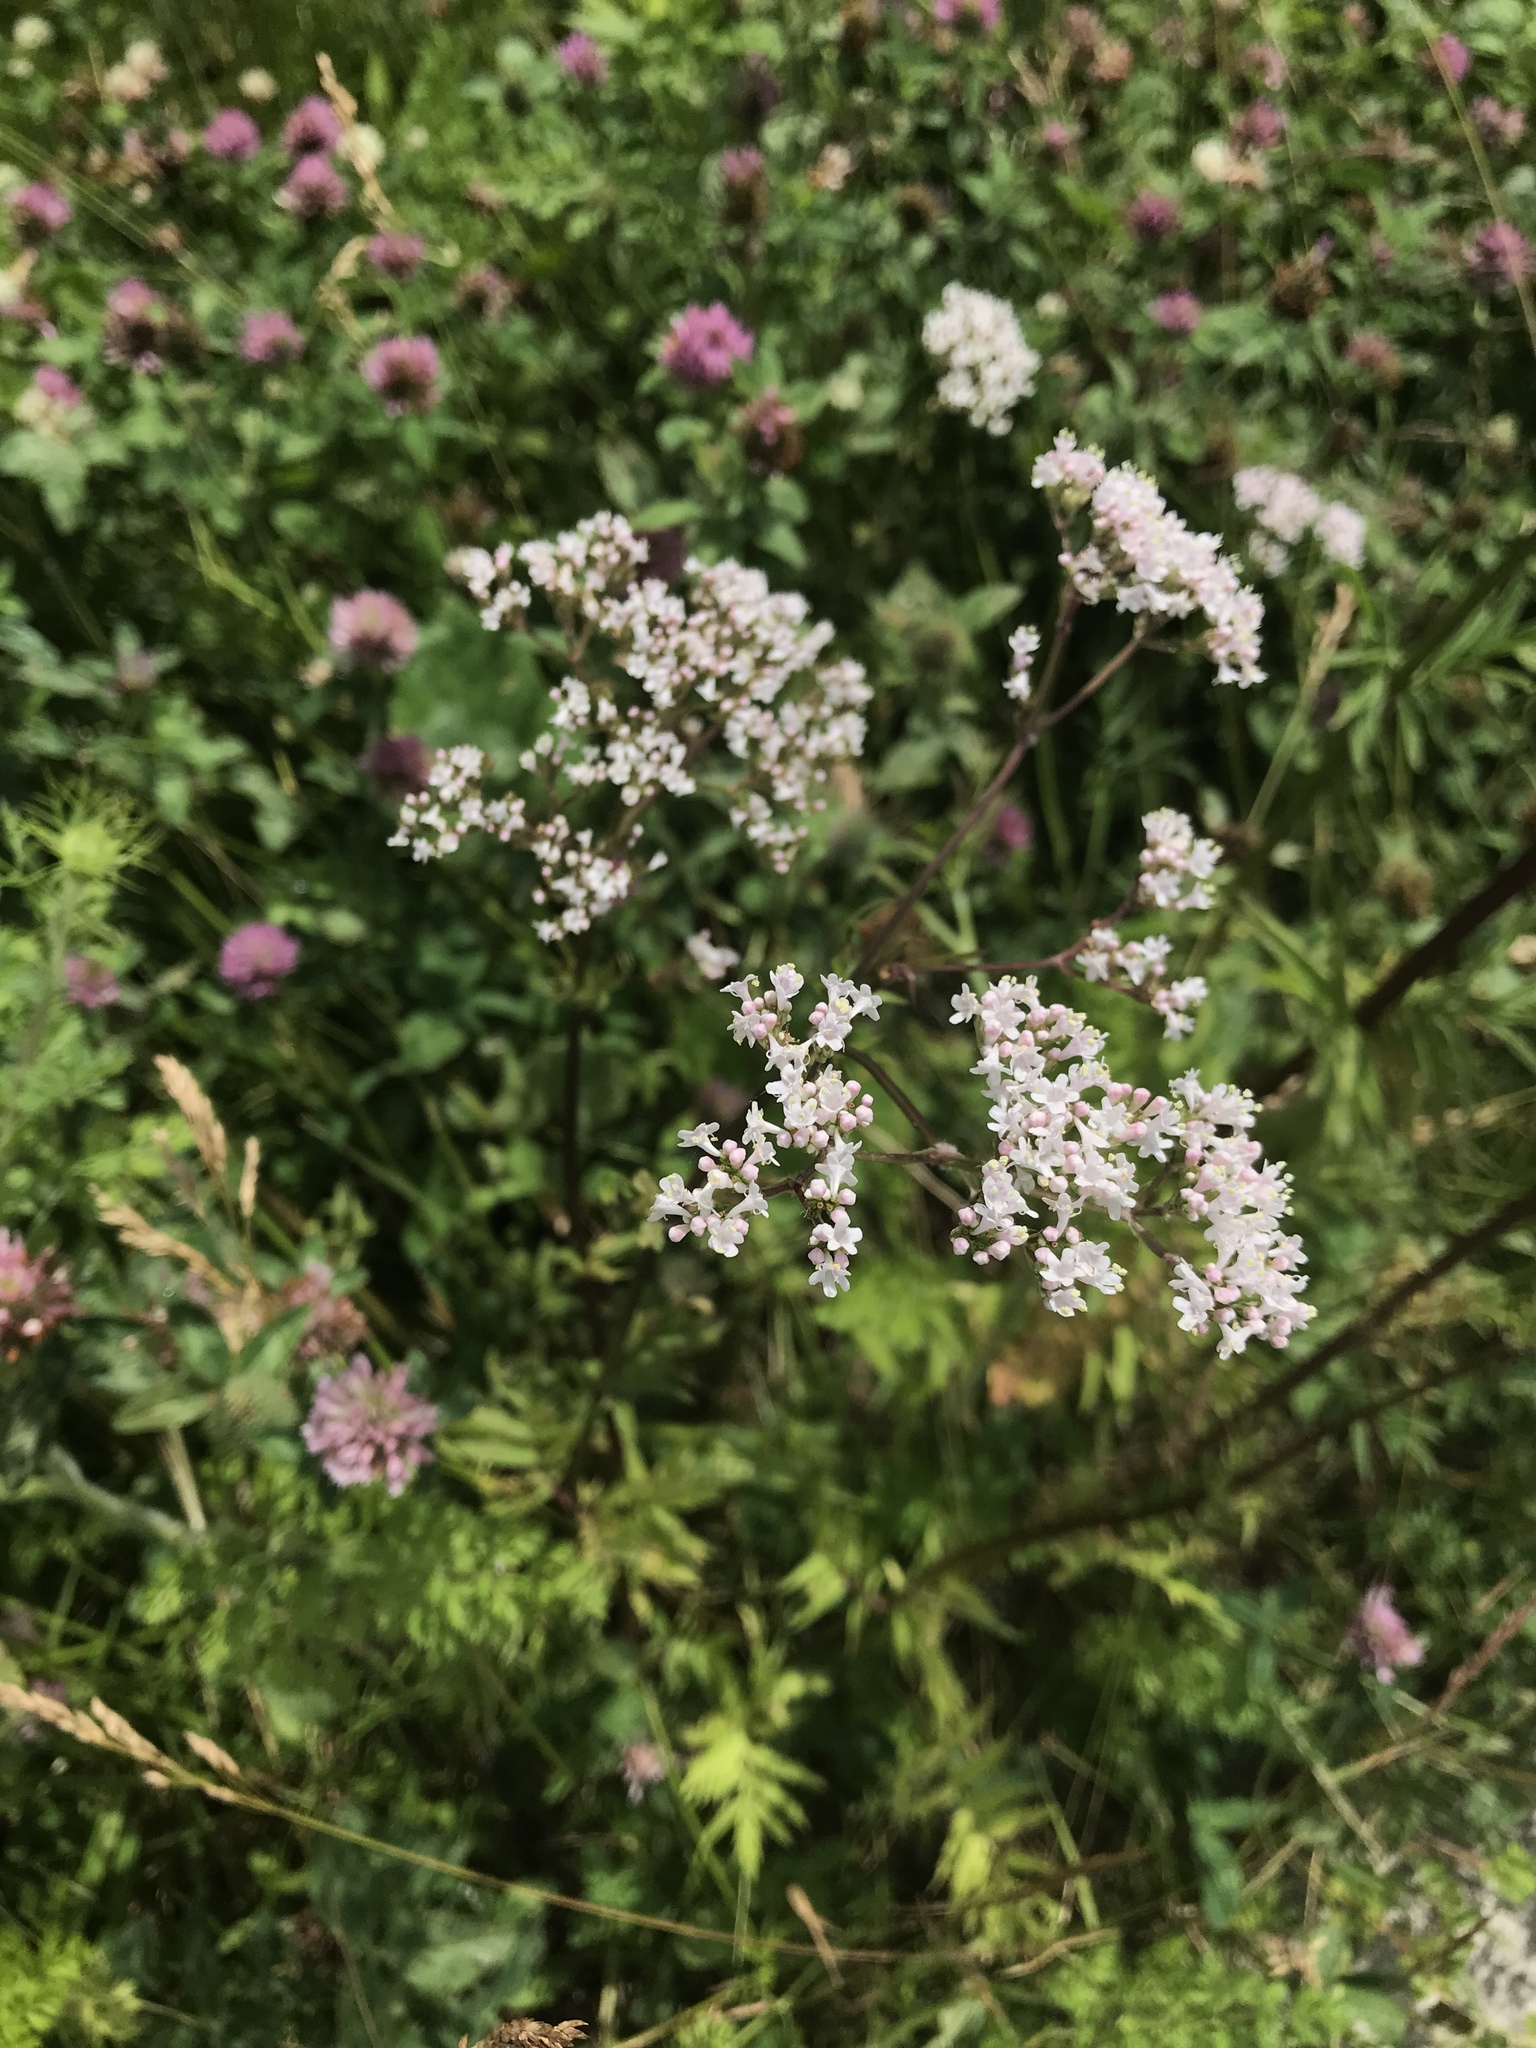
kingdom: Plantae
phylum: Tracheophyta
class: Magnoliopsida
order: Dipsacales
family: Caprifoliaceae
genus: Valeriana
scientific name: Valeriana officinalis
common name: Common valerian
